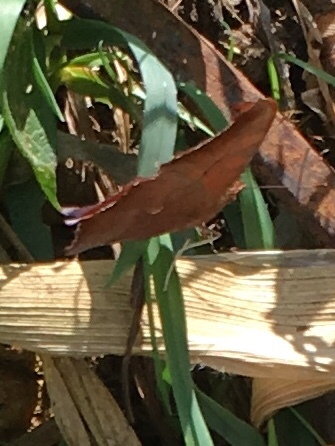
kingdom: Animalia
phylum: Arthropoda
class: Insecta
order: Lepidoptera
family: Nymphalidae
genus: Polygonia
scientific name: Polygonia interrogationis
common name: Question mark
